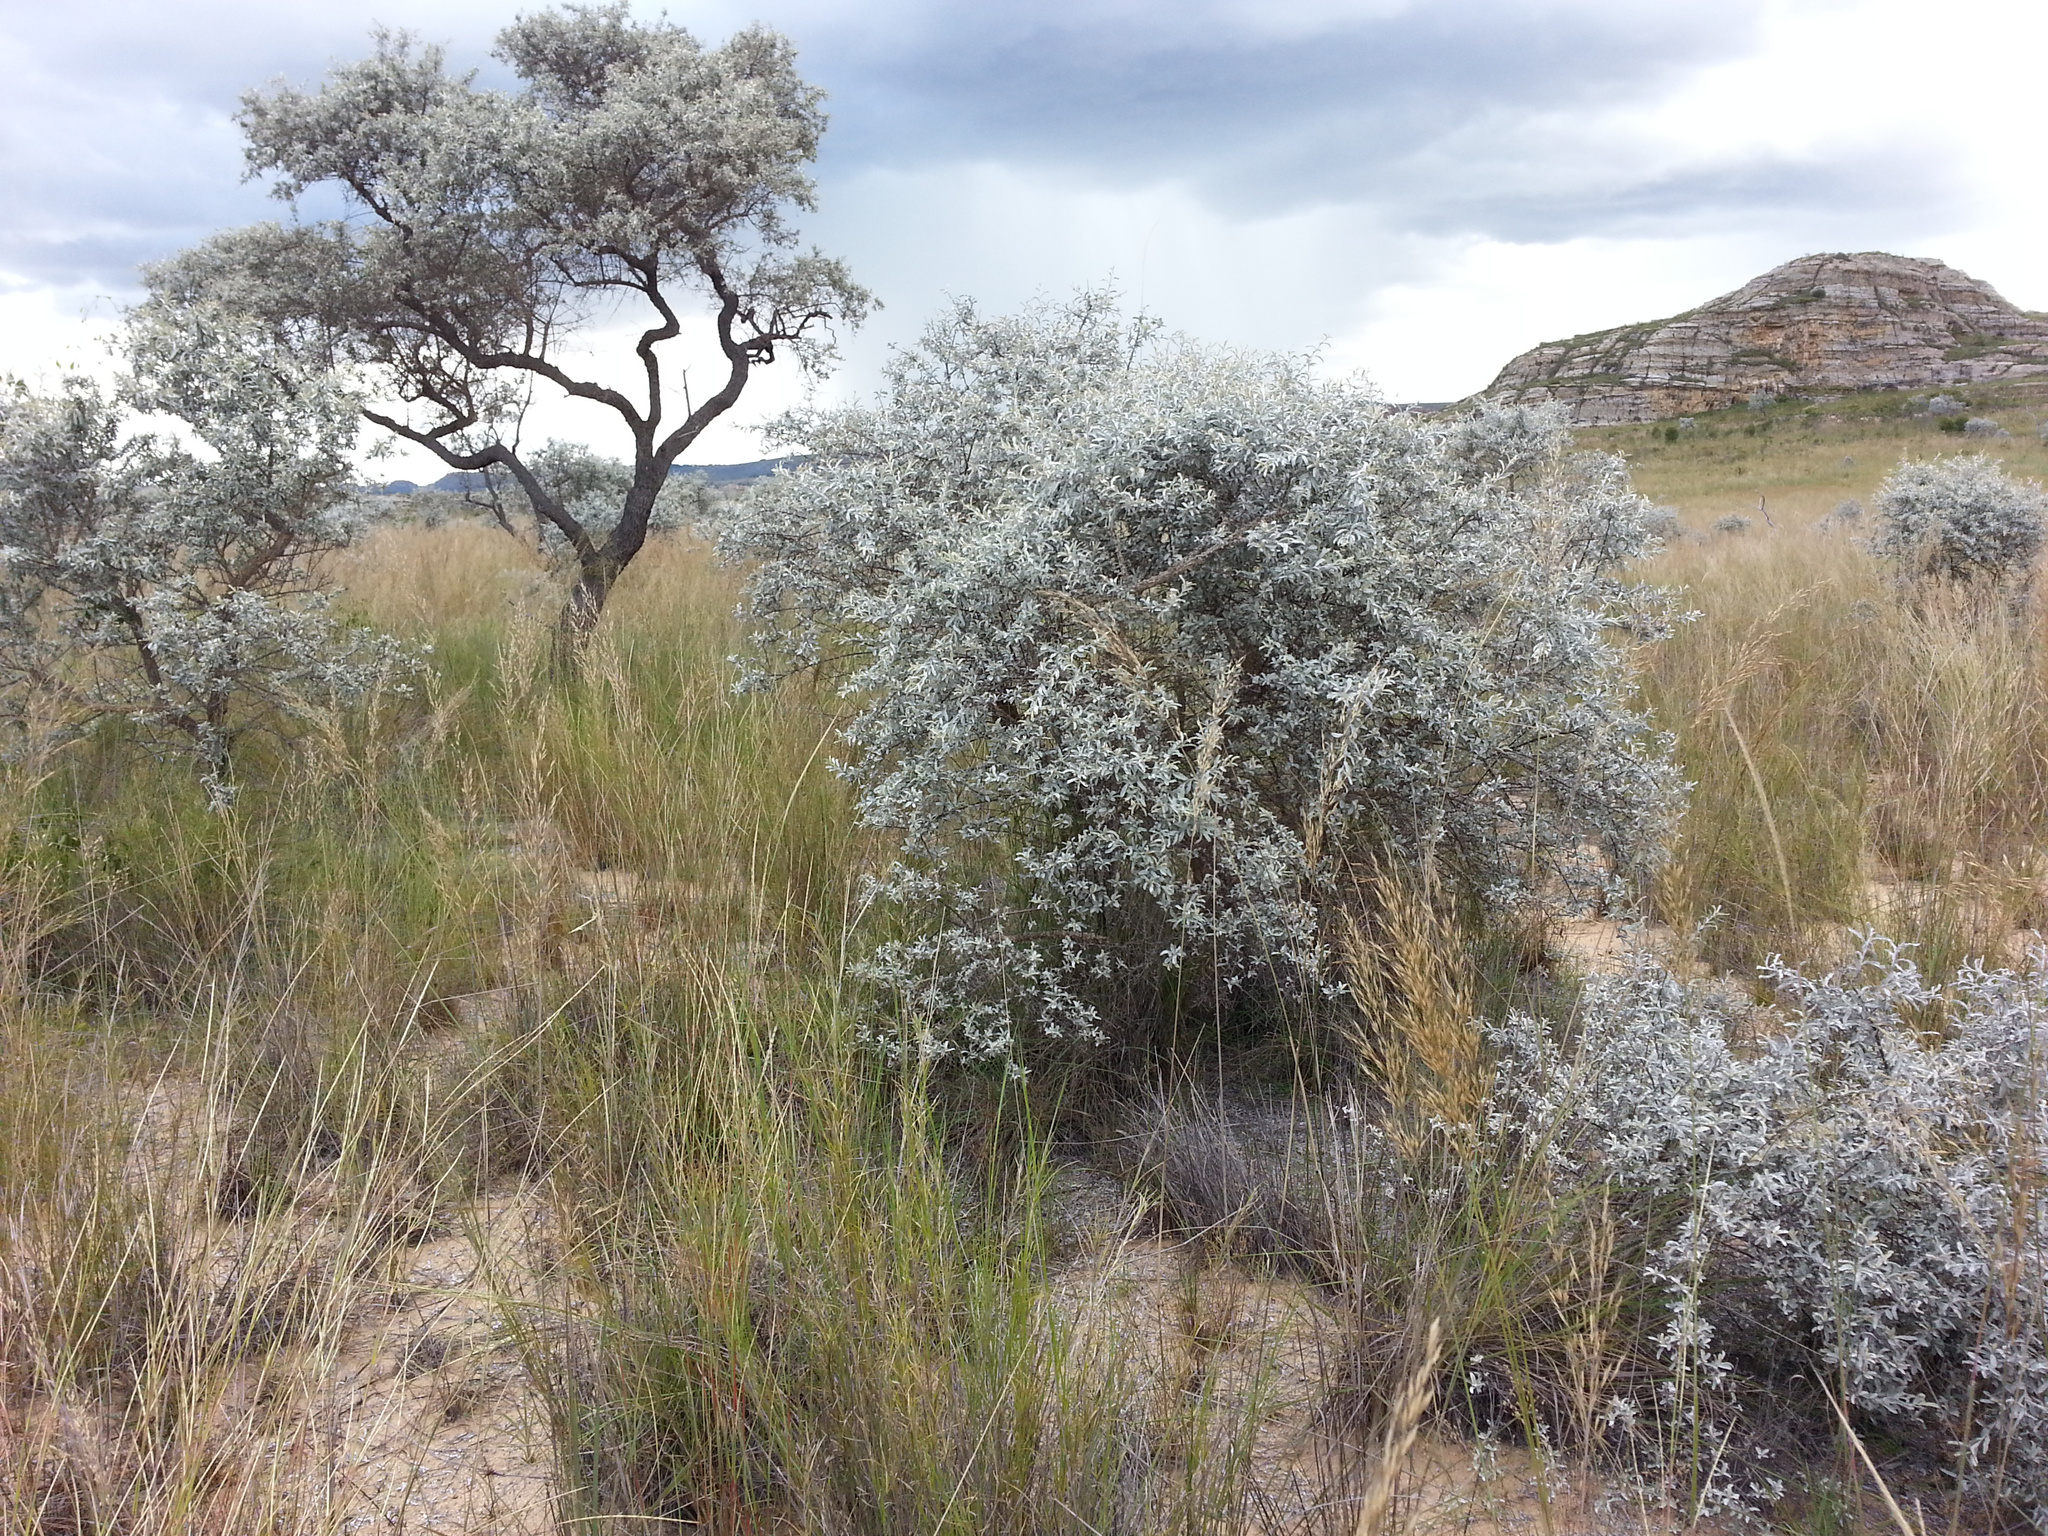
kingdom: Plantae
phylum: Tracheophyta
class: Magnoliopsida
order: Asterales
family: Asteraceae
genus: Dicoma
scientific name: Dicoma incana
